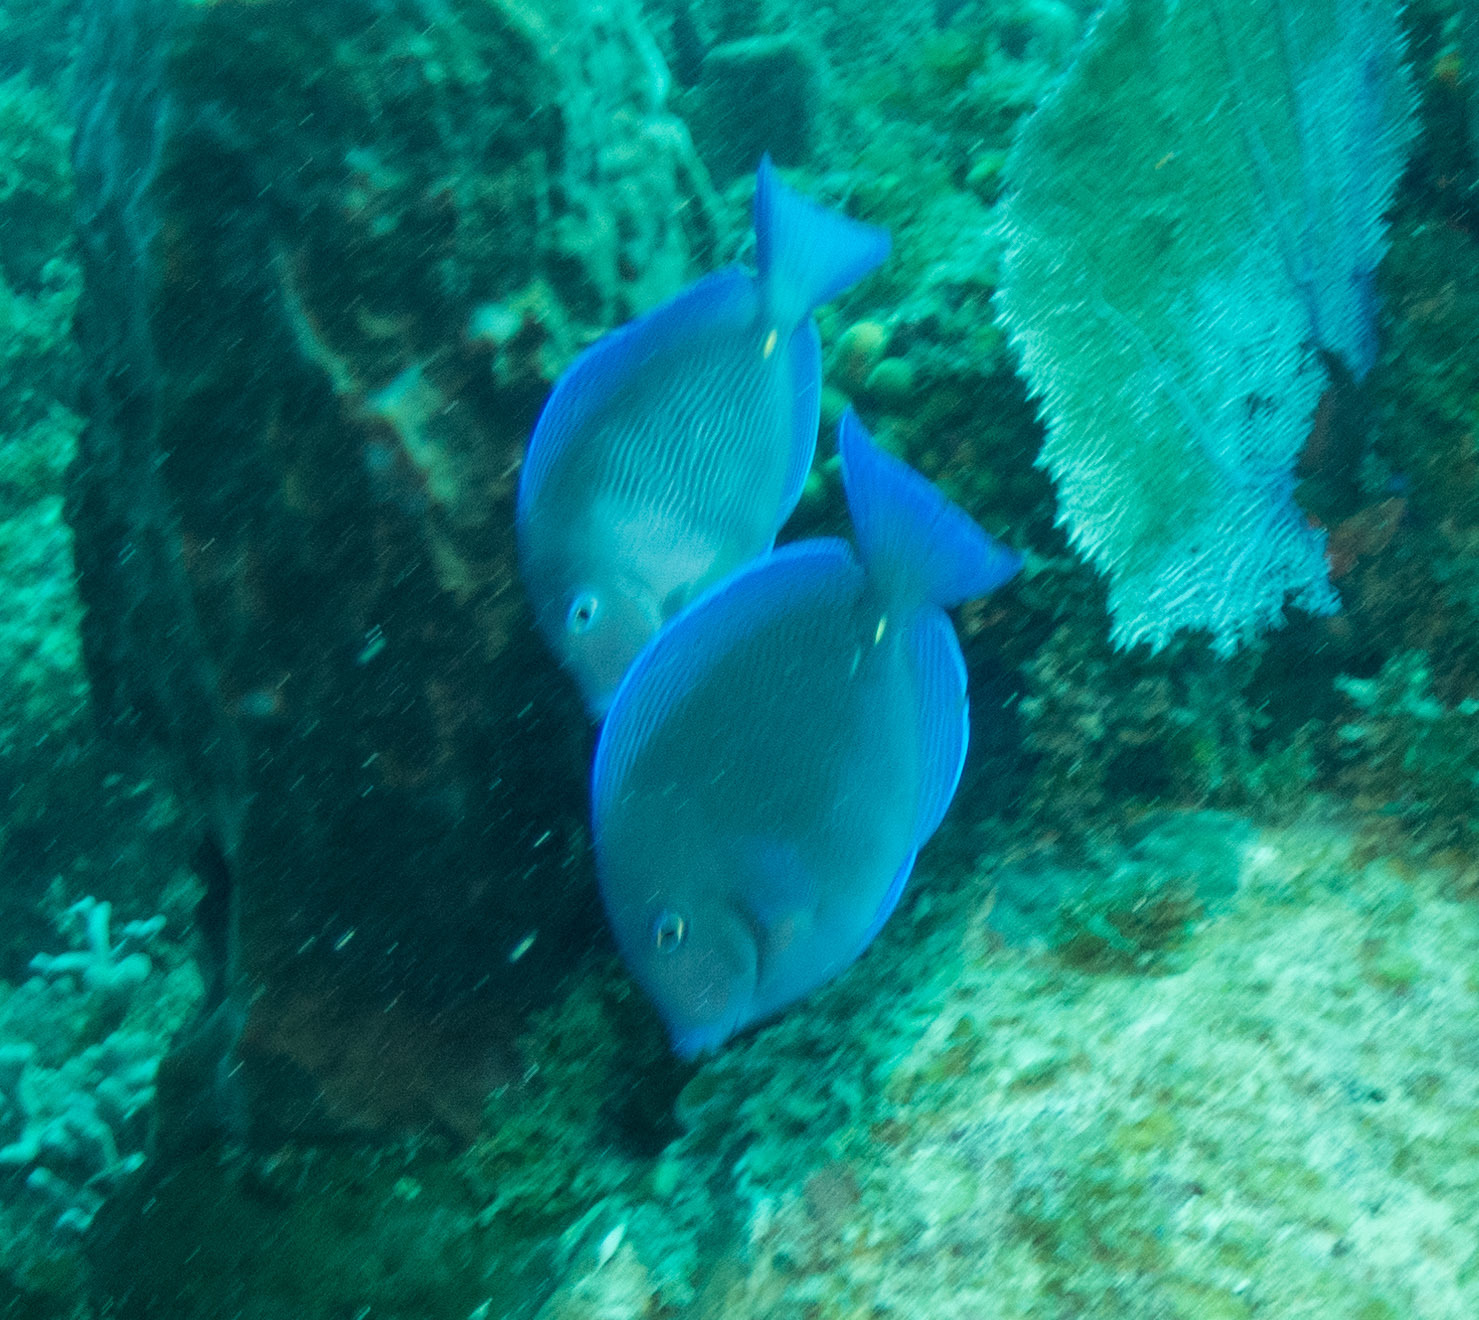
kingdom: Animalia
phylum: Chordata
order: Perciformes
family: Acanthuridae
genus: Acanthurus
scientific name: Acanthurus coeruleus
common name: Blue tang
